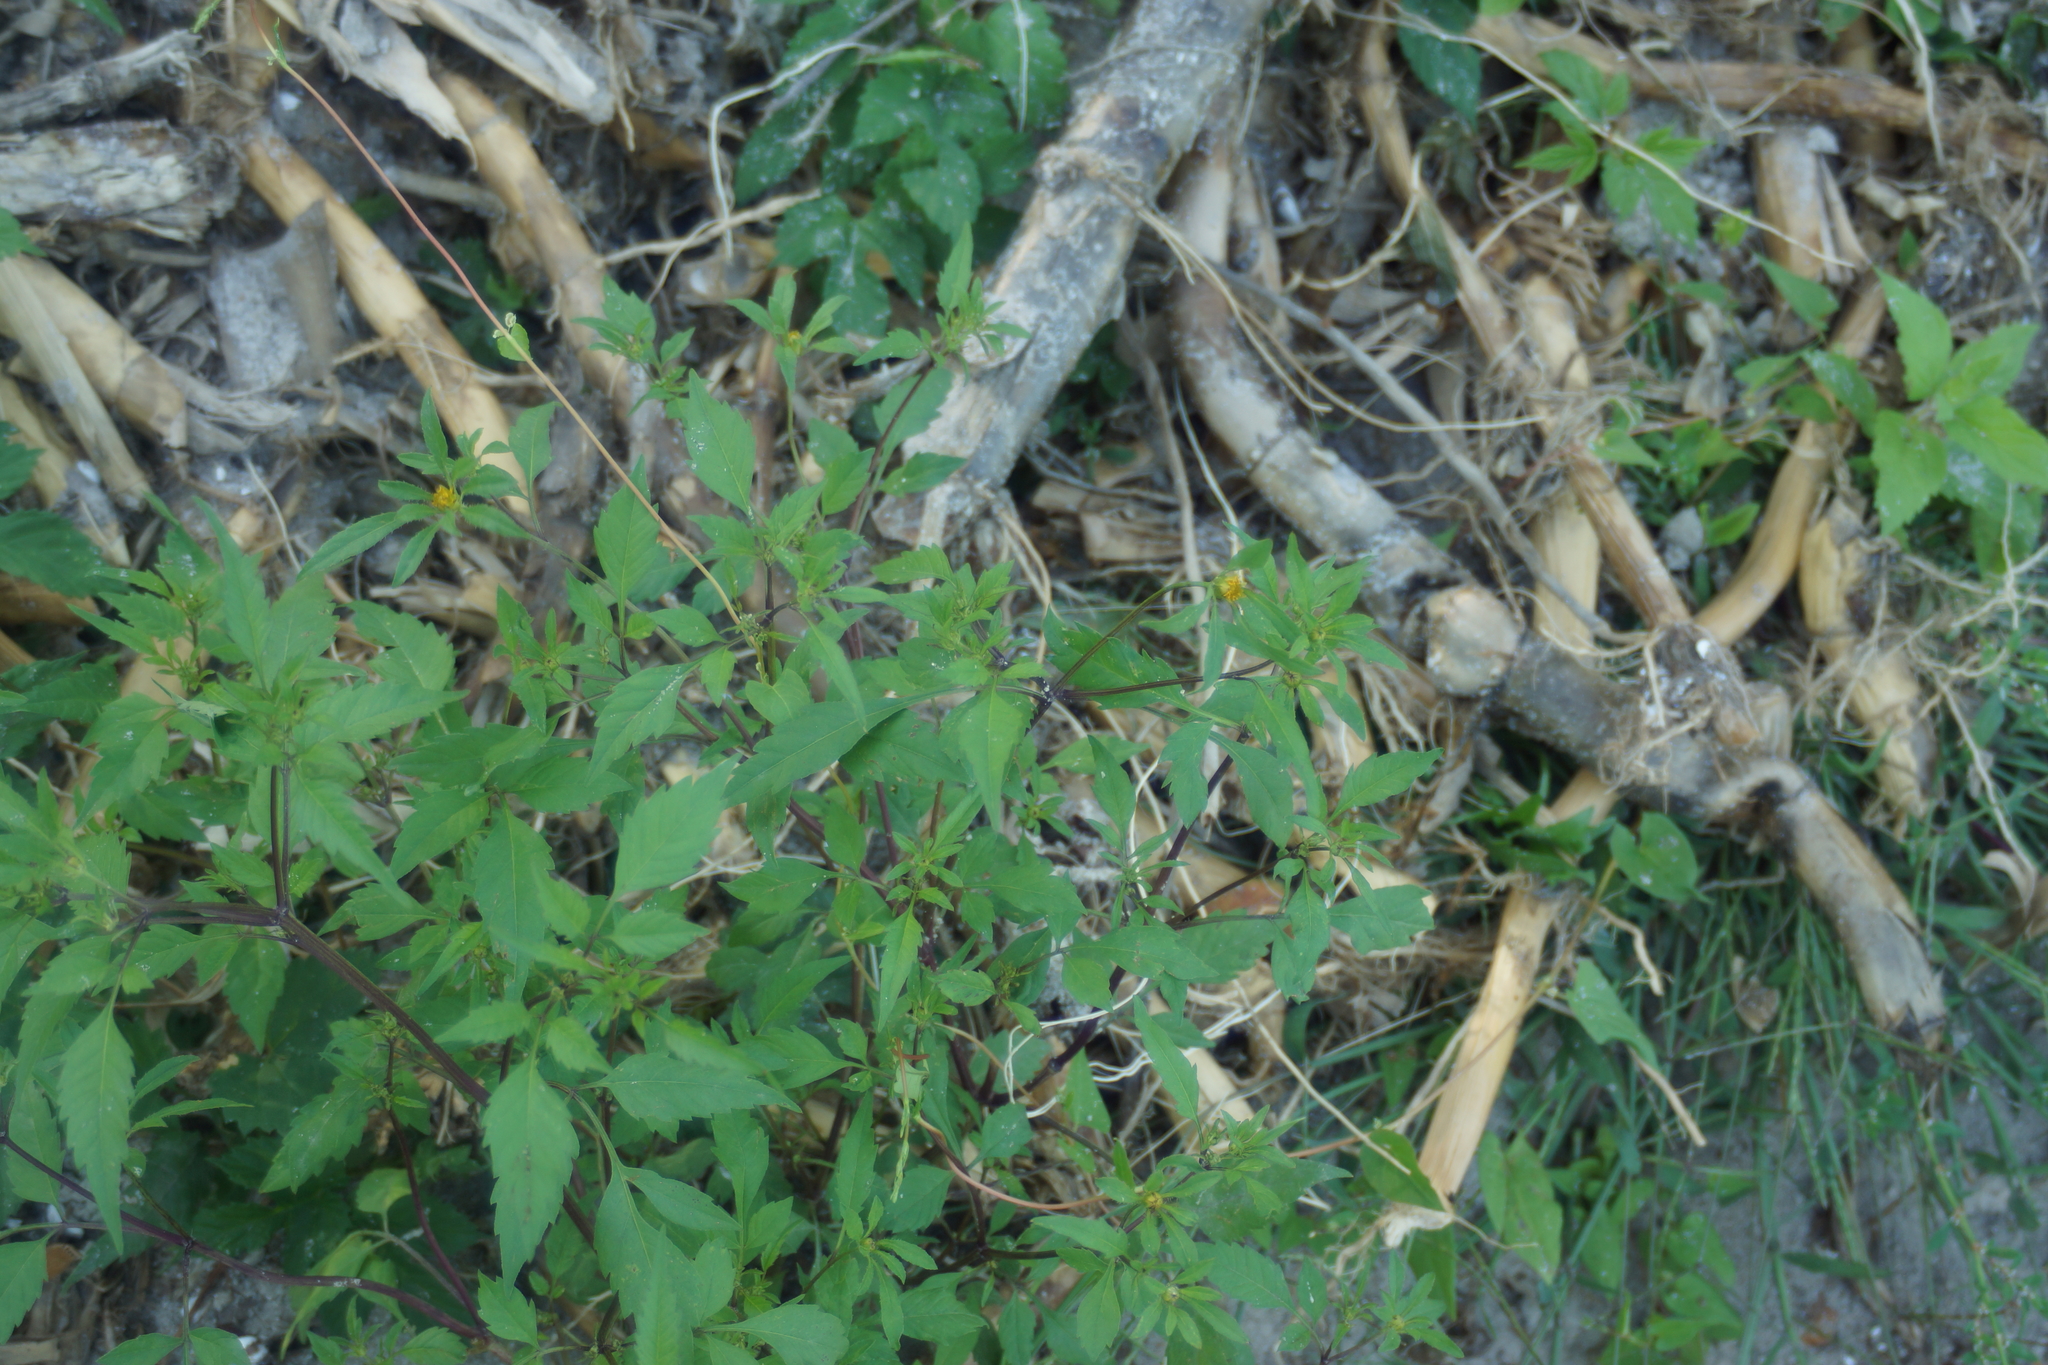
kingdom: Plantae
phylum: Tracheophyta
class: Magnoliopsida
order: Asterales
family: Asteraceae
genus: Bidens
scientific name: Bidens frondosa
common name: Beggarticks
